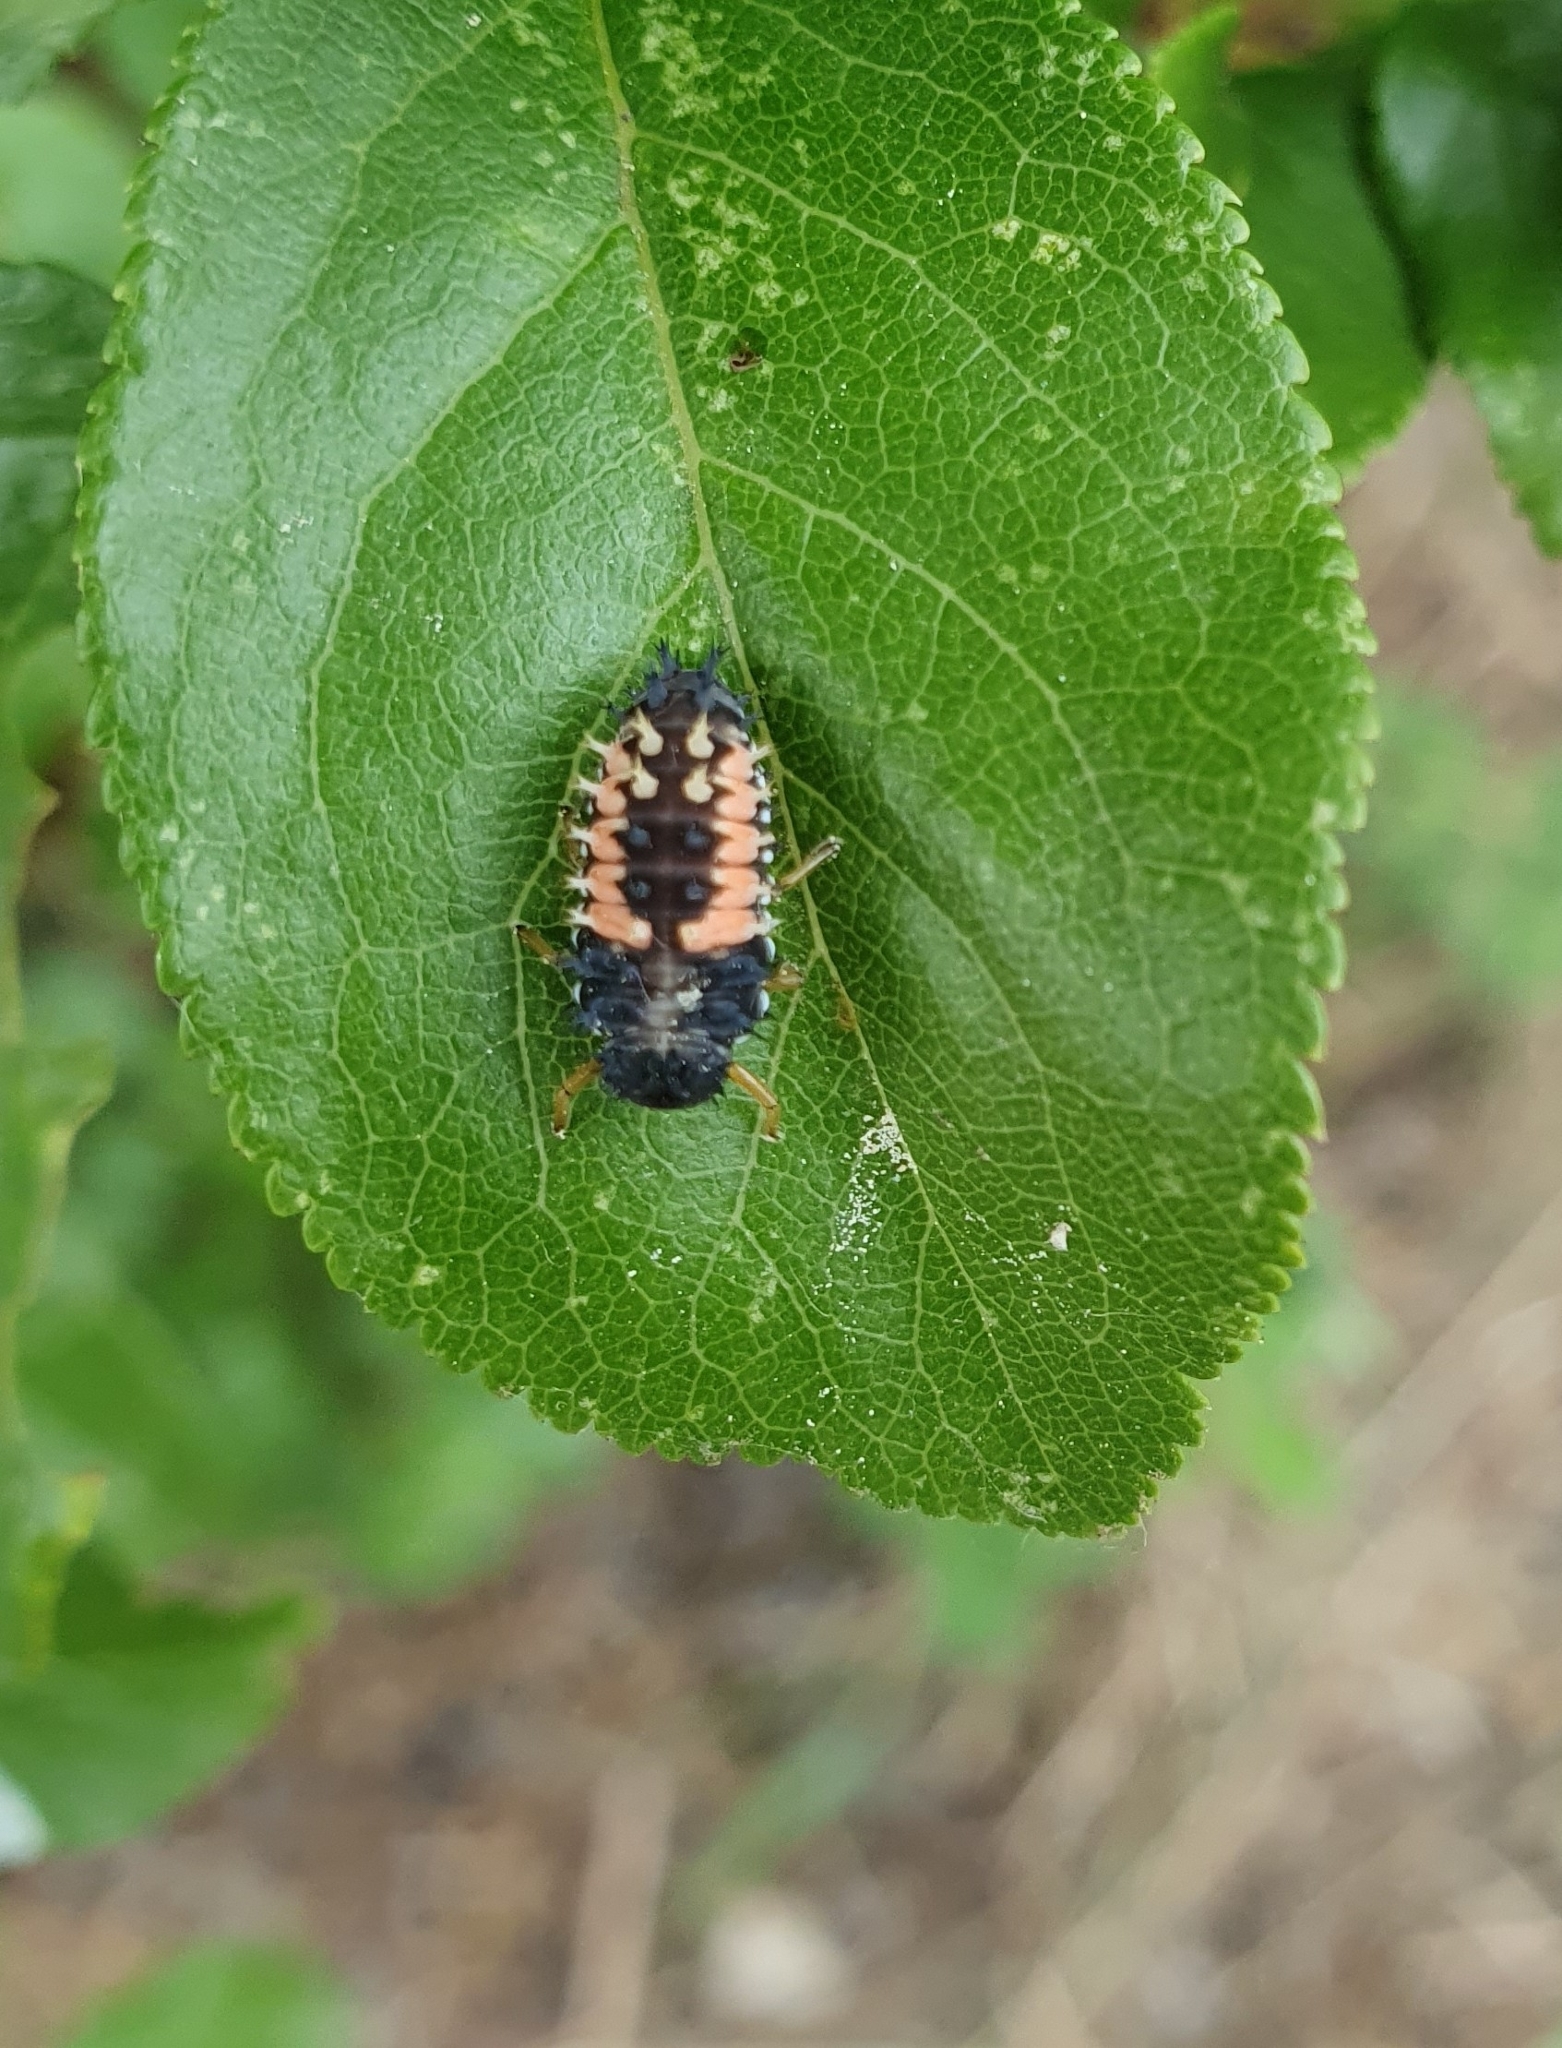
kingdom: Animalia
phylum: Arthropoda
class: Insecta
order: Coleoptera
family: Coccinellidae
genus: Harmonia
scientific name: Harmonia axyridis
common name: Harlequin ladybird
